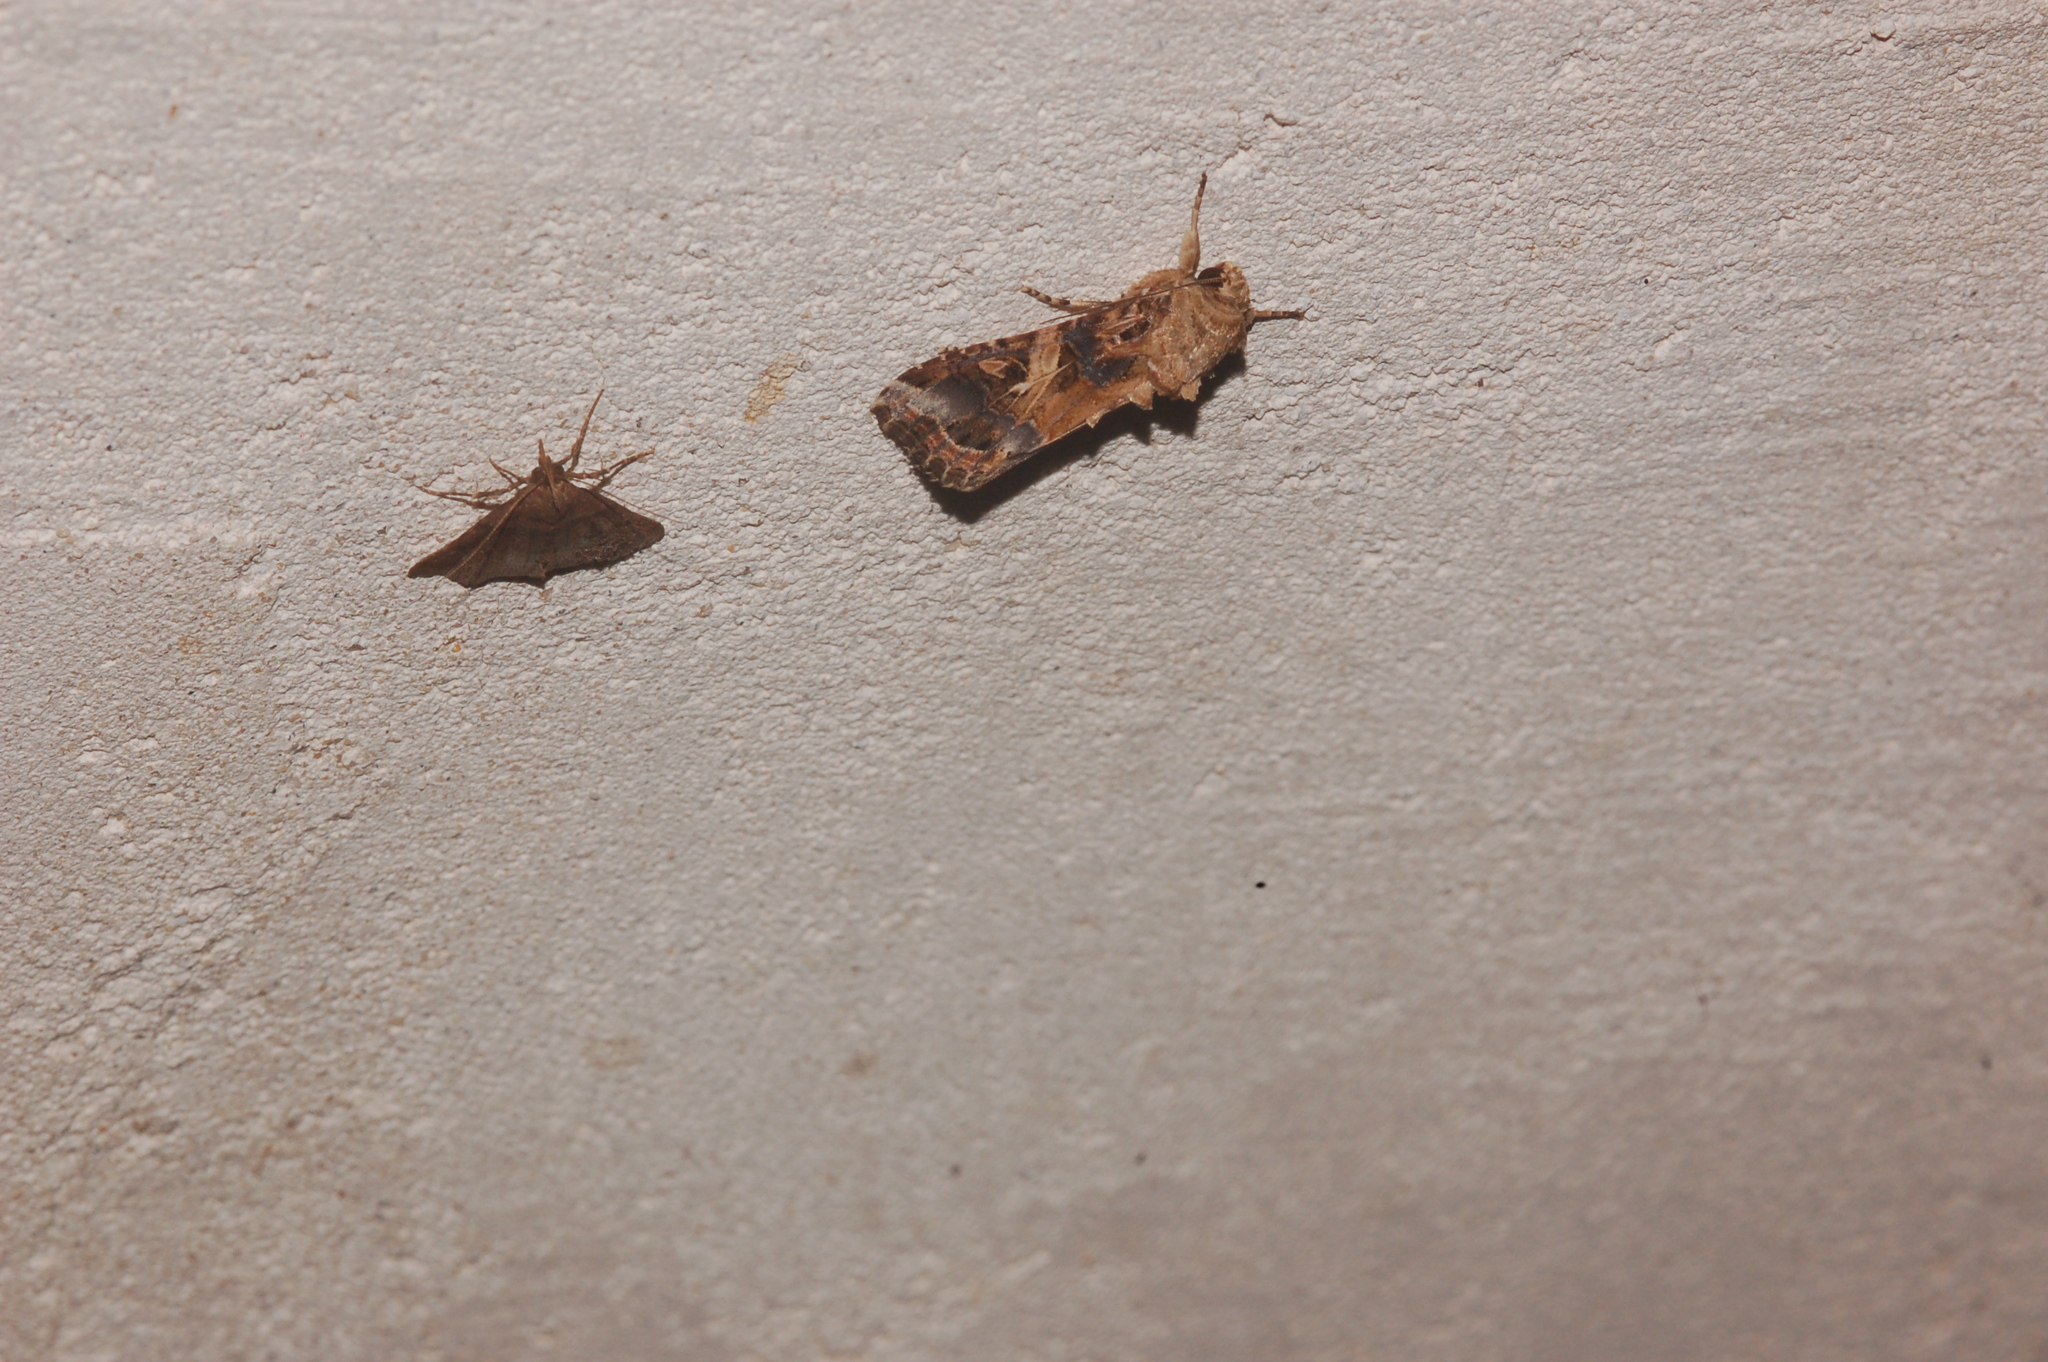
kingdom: Animalia
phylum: Arthropoda
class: Insecta
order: Lepidoptera
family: Noctuidae
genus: Spodoptera
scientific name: Spodoptera ornithogalli
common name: Yellow-striped armyworm
